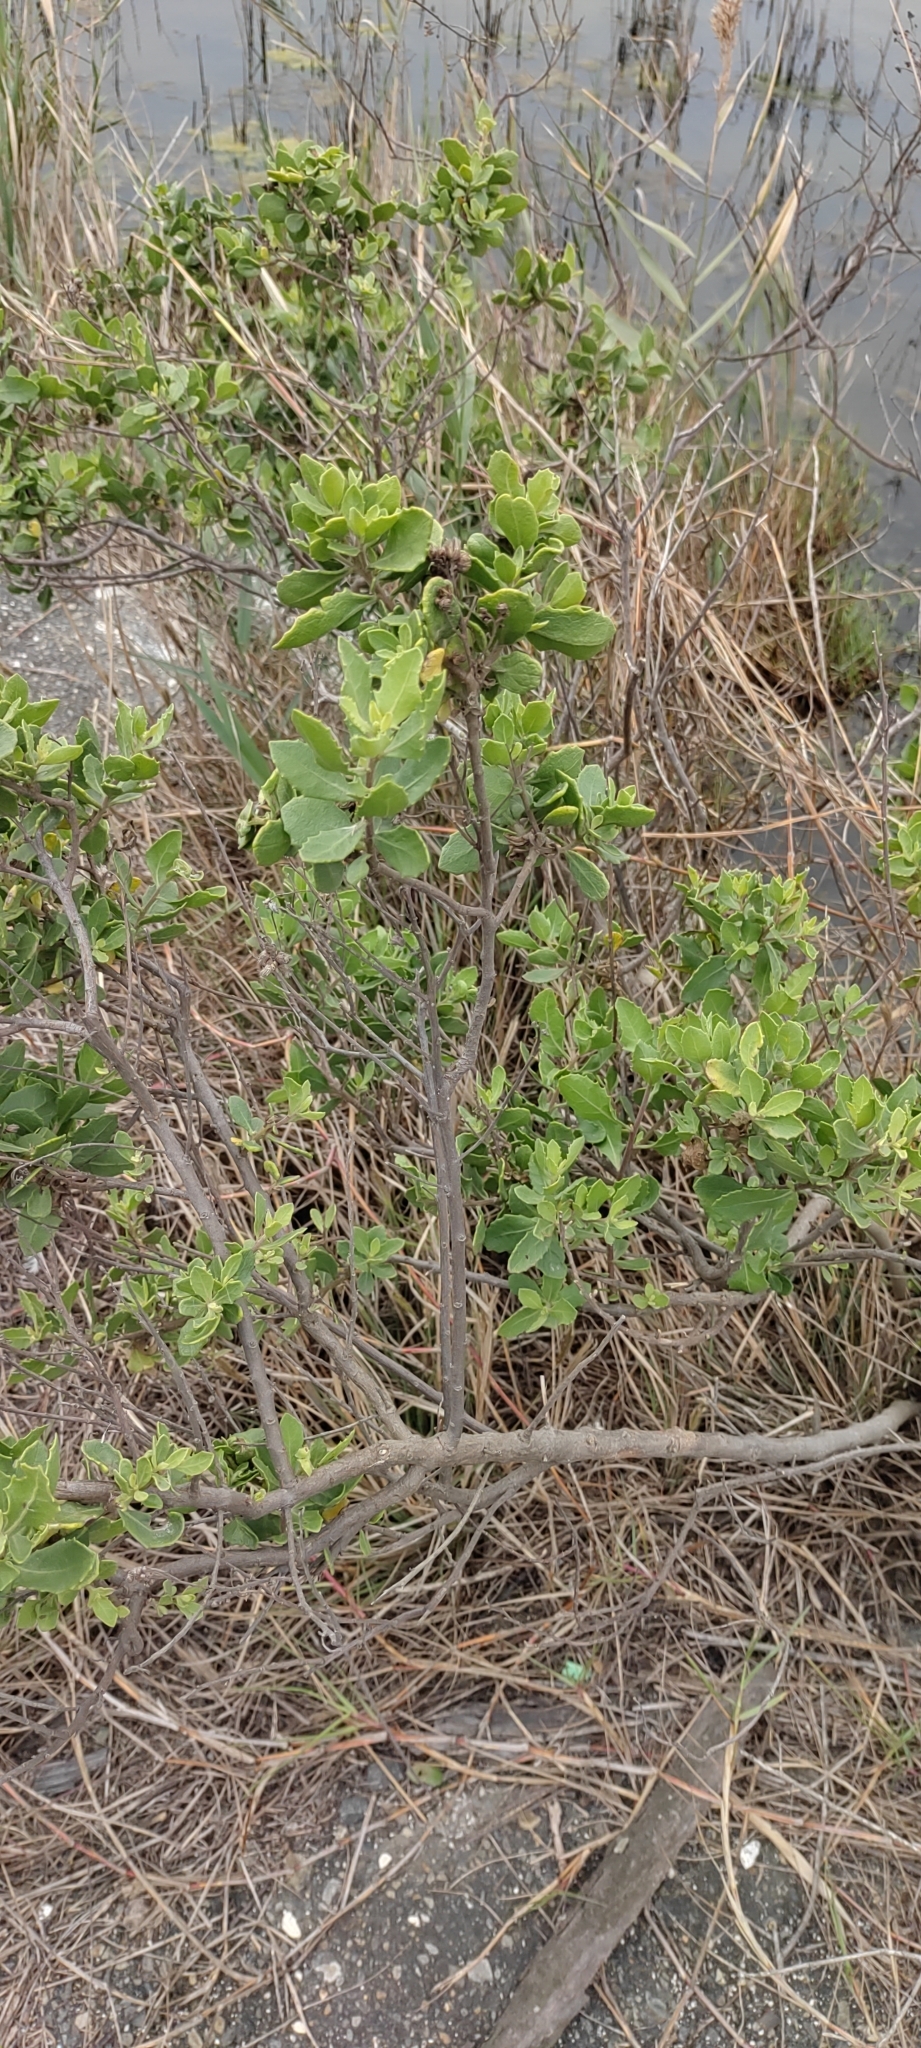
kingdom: Plantae
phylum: Tracheophyta
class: Magnoliopsida
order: Asterales
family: Asteraceae
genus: Pluchea
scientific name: Pluchea indica
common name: Indian fleabane
